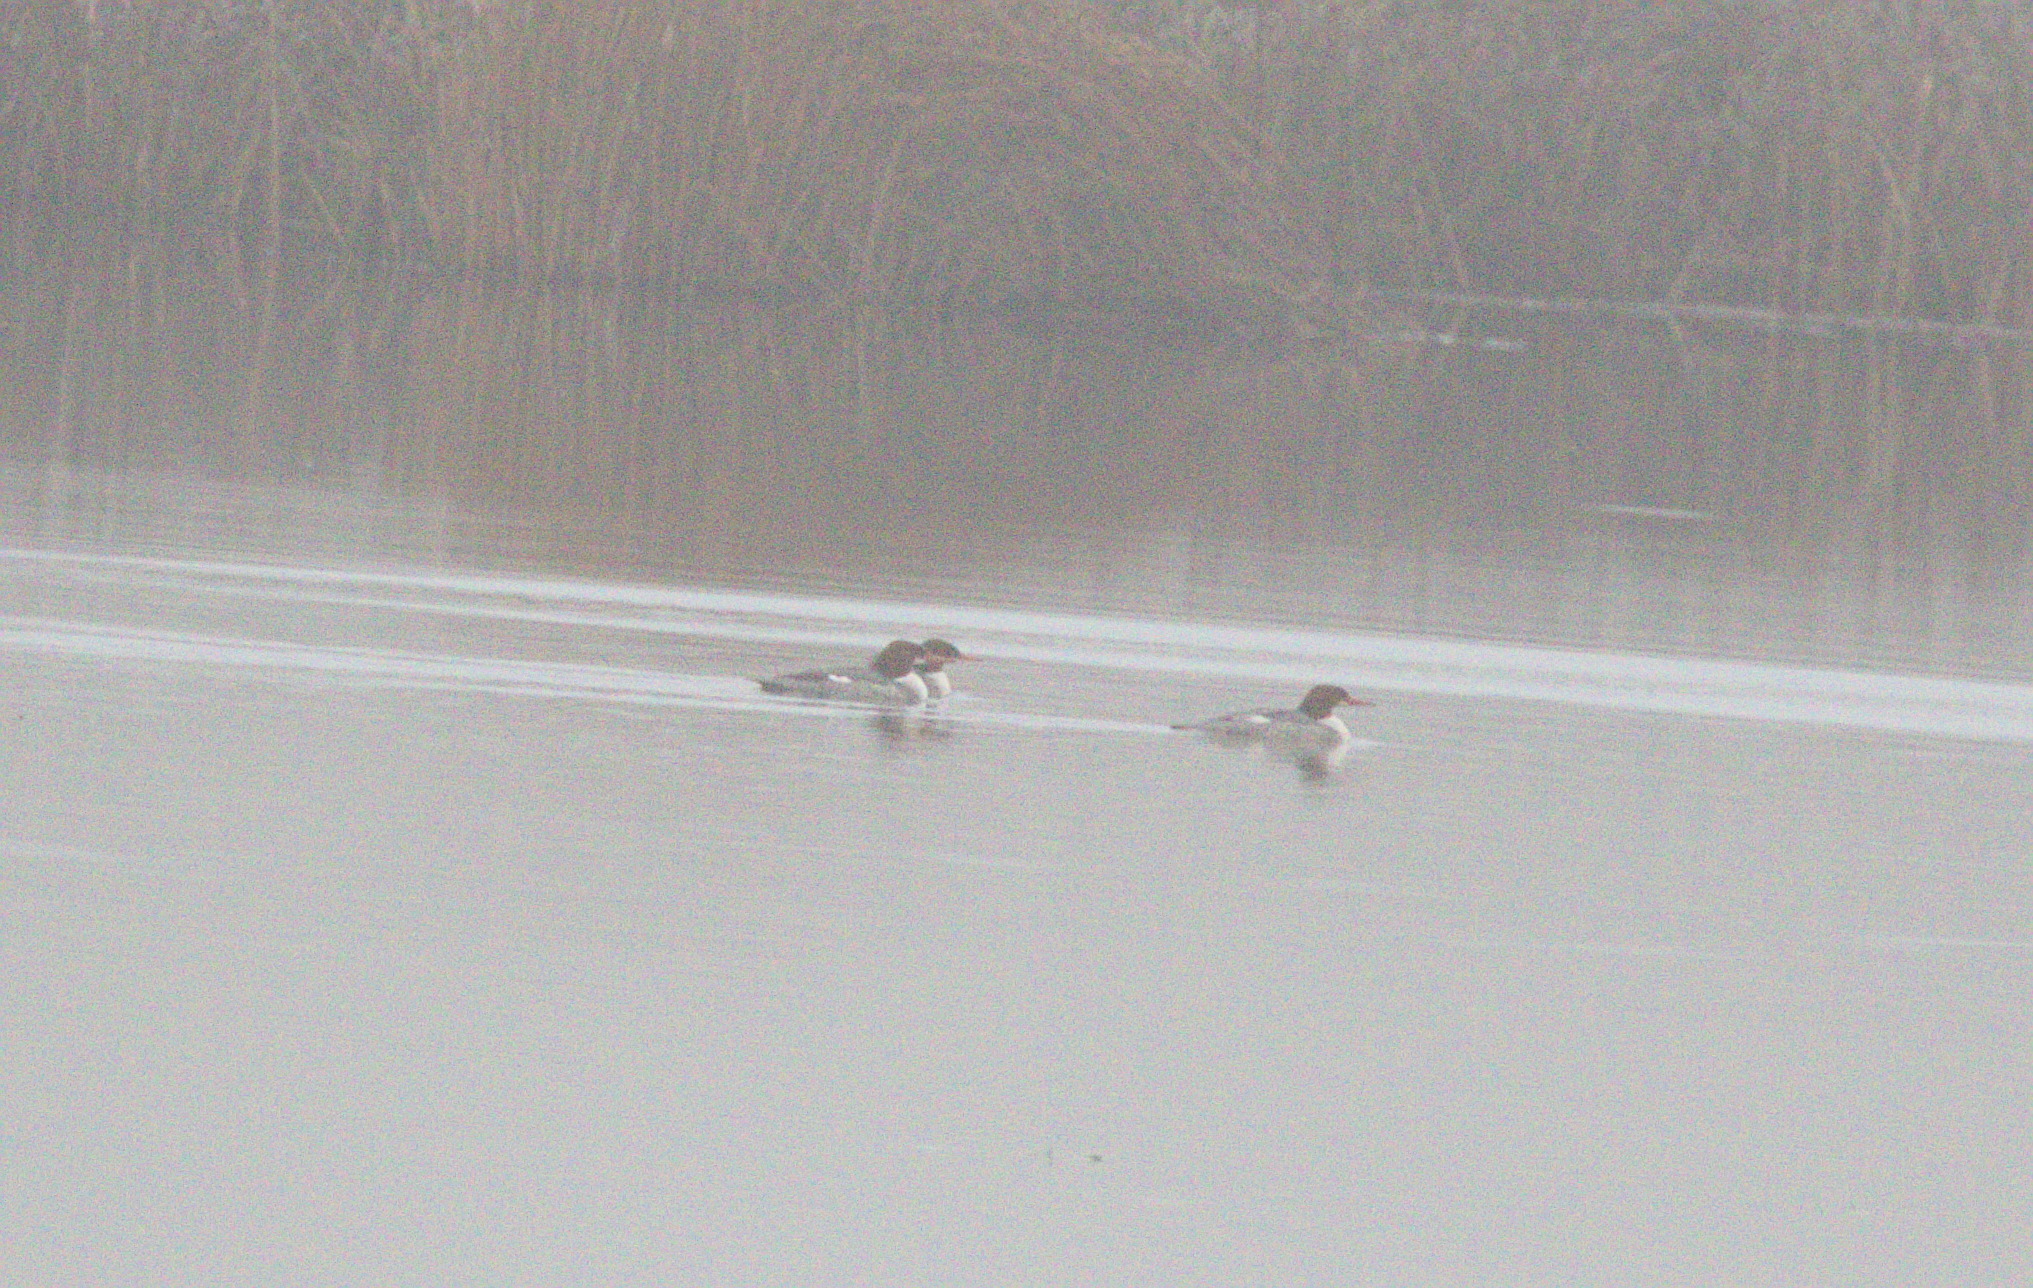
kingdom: Animalia
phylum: Chordata
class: Aves
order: Anseriformes
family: Anatidae
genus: Mergus
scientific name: Mergus merganser
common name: Common merganser
